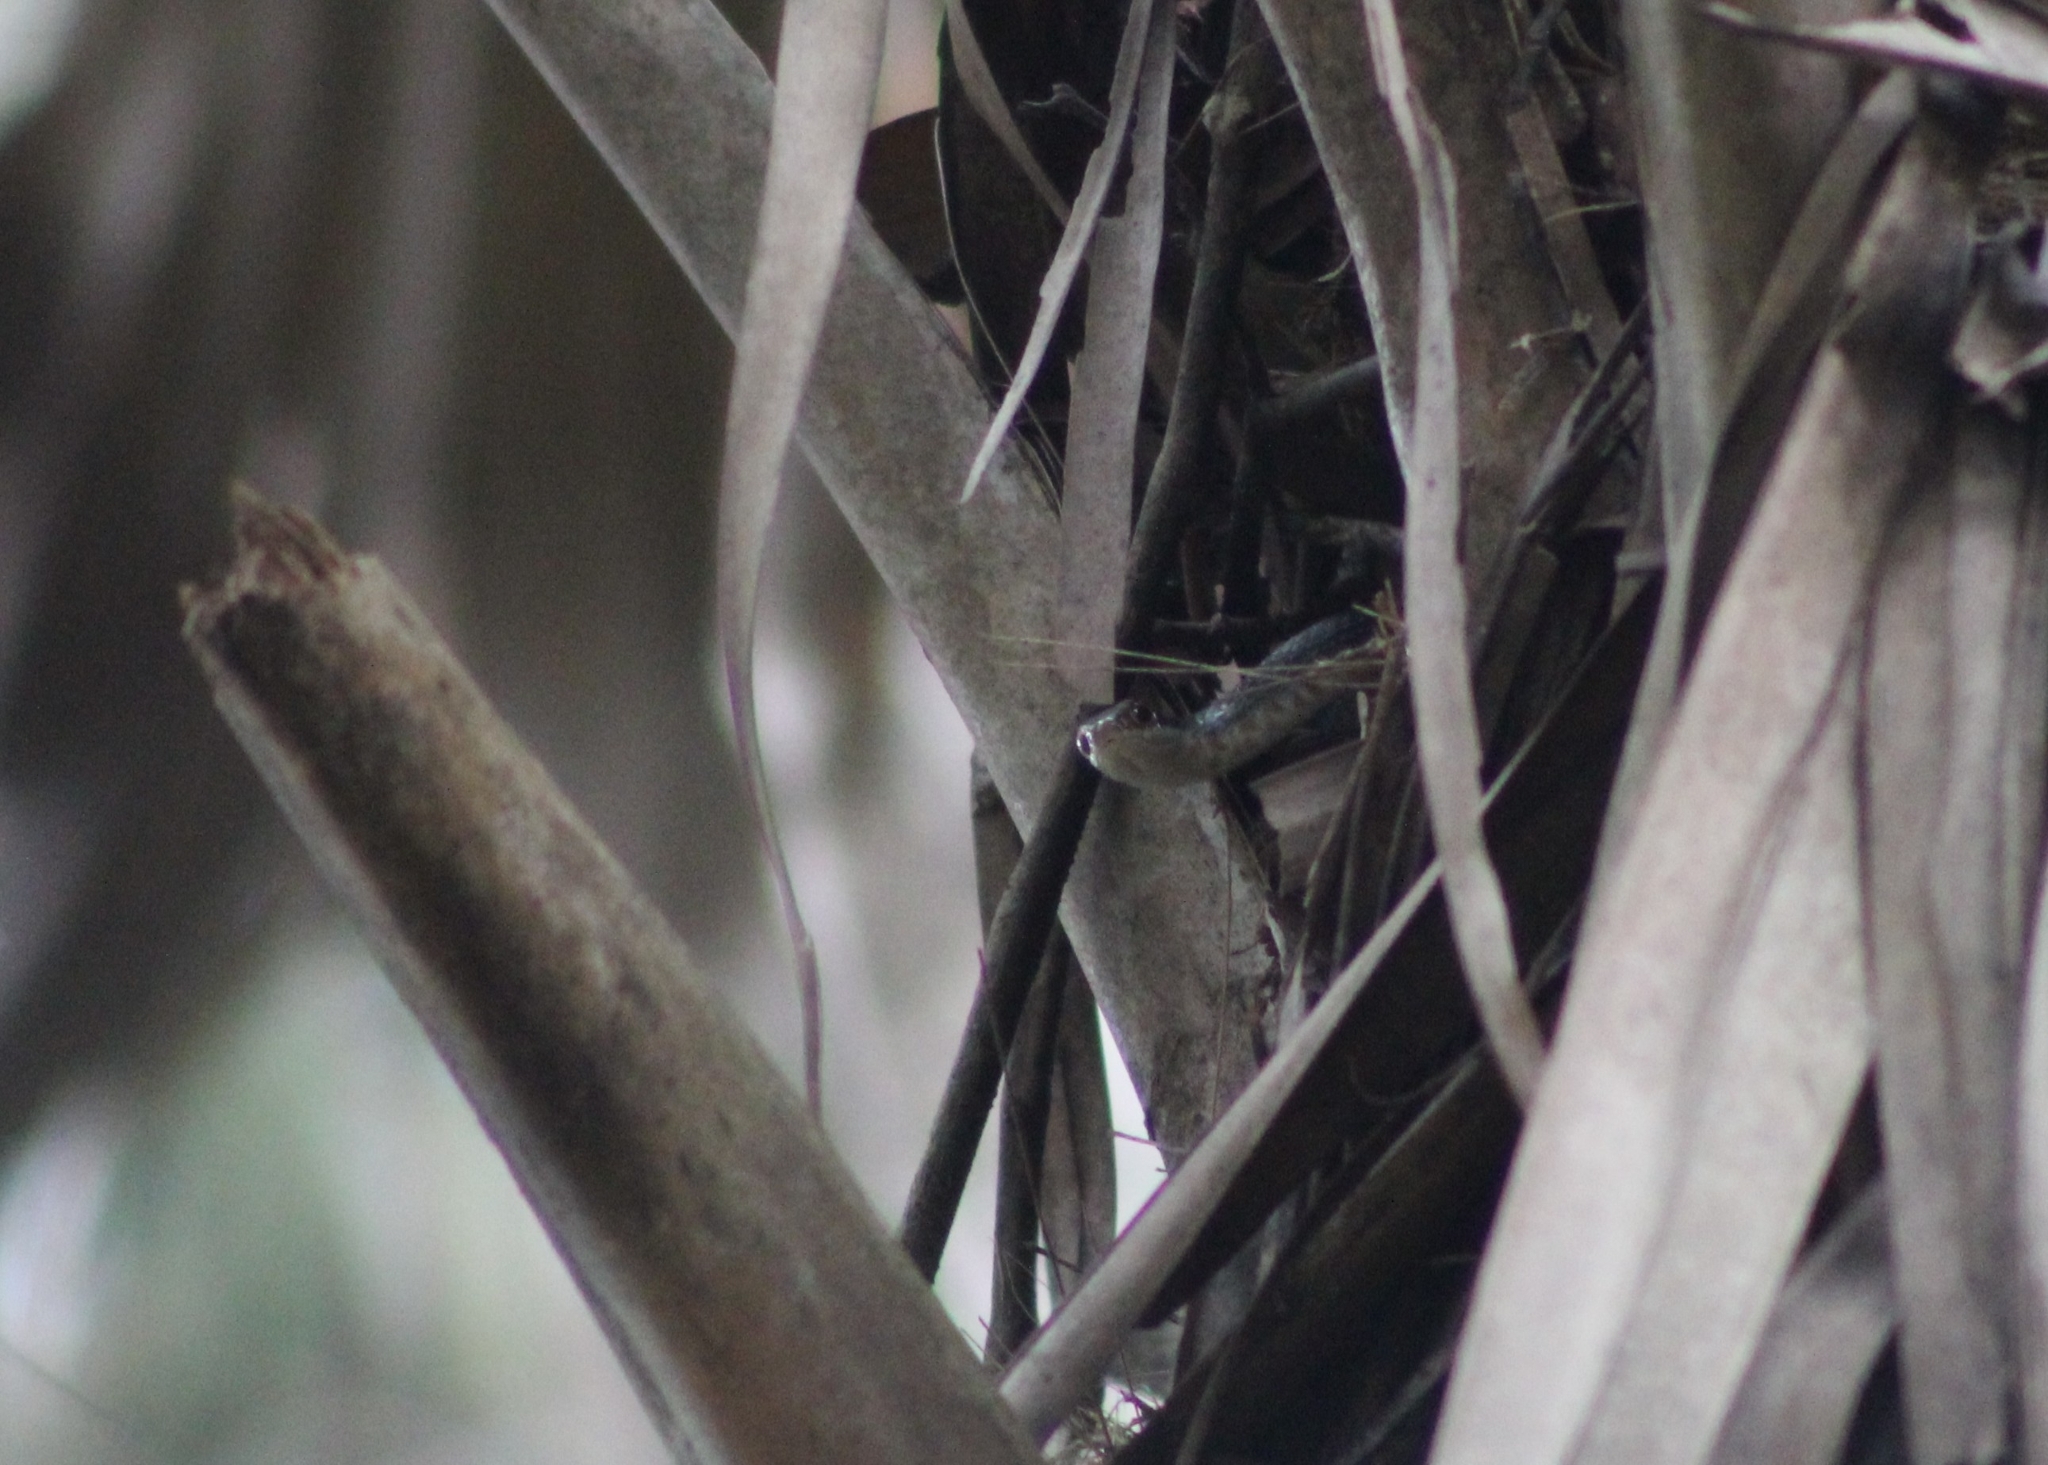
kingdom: Animalia
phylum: Chordata
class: Squamata
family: Colubridae
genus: Coluber
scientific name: Coluber constrictor
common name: Eastern racer
